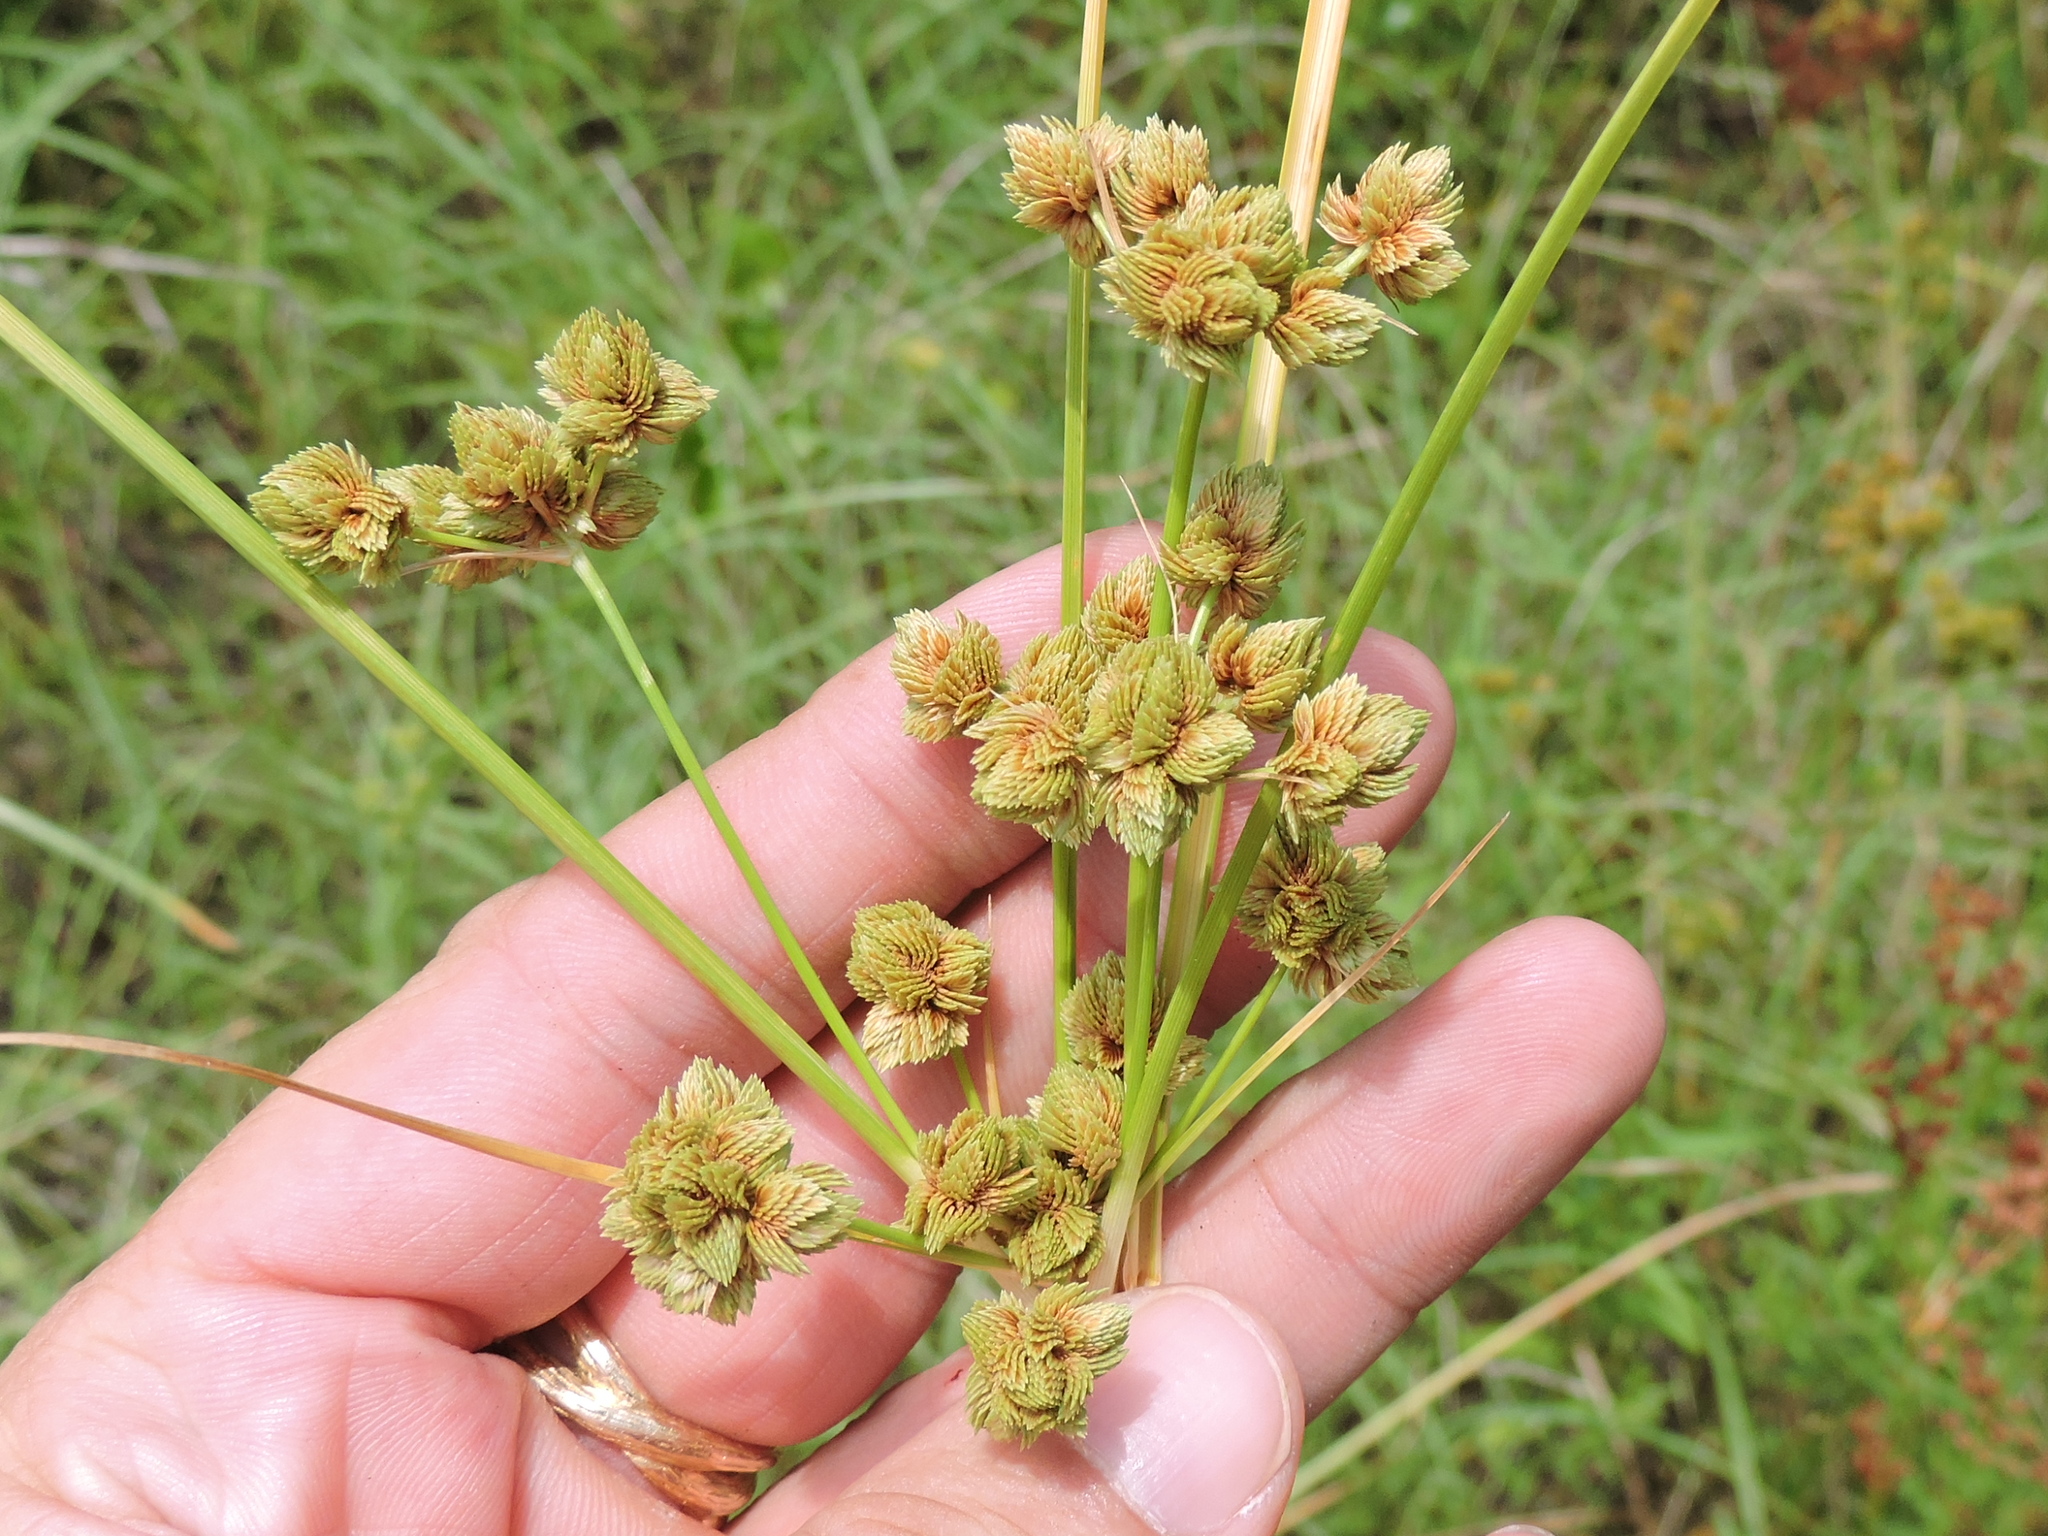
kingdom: Plantae
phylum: Tracheophyta
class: Liliopsida
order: Poales
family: Cyperaceae
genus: Cyperus
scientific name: Cyperus pseudovegetus
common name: Marsh flat sedge
